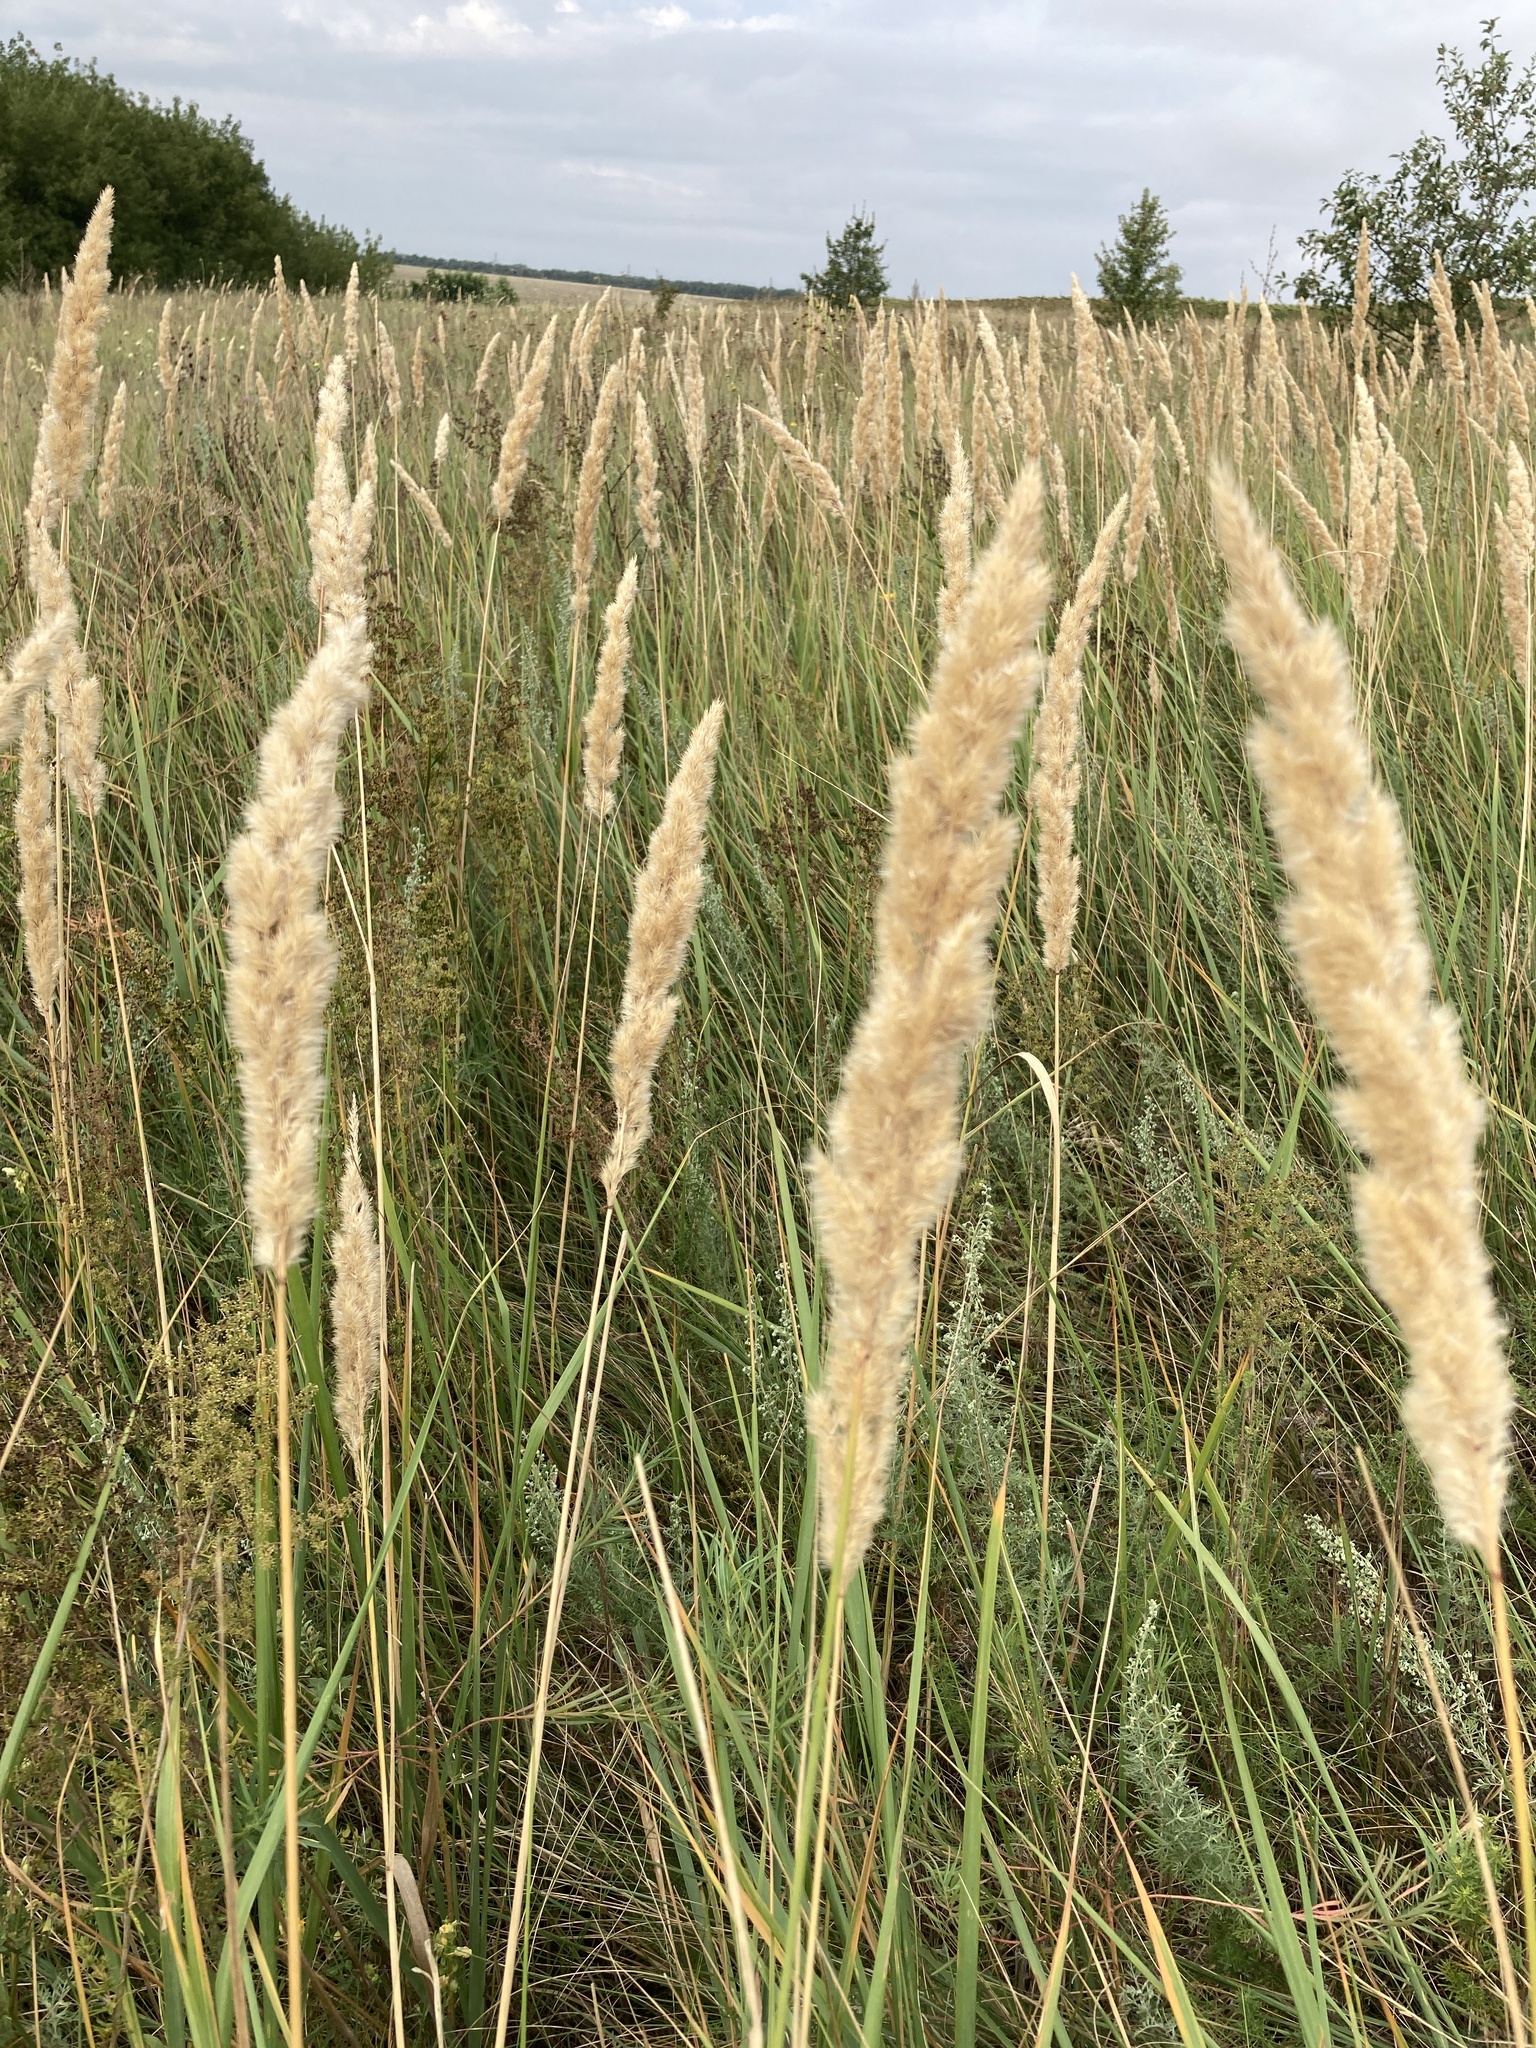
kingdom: Plantae
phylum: Tracheophyta
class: Liliopsida
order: Poales
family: Poaceae
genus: Calamagrostis
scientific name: Calamagrostis epigejos
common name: Wood small-reed
